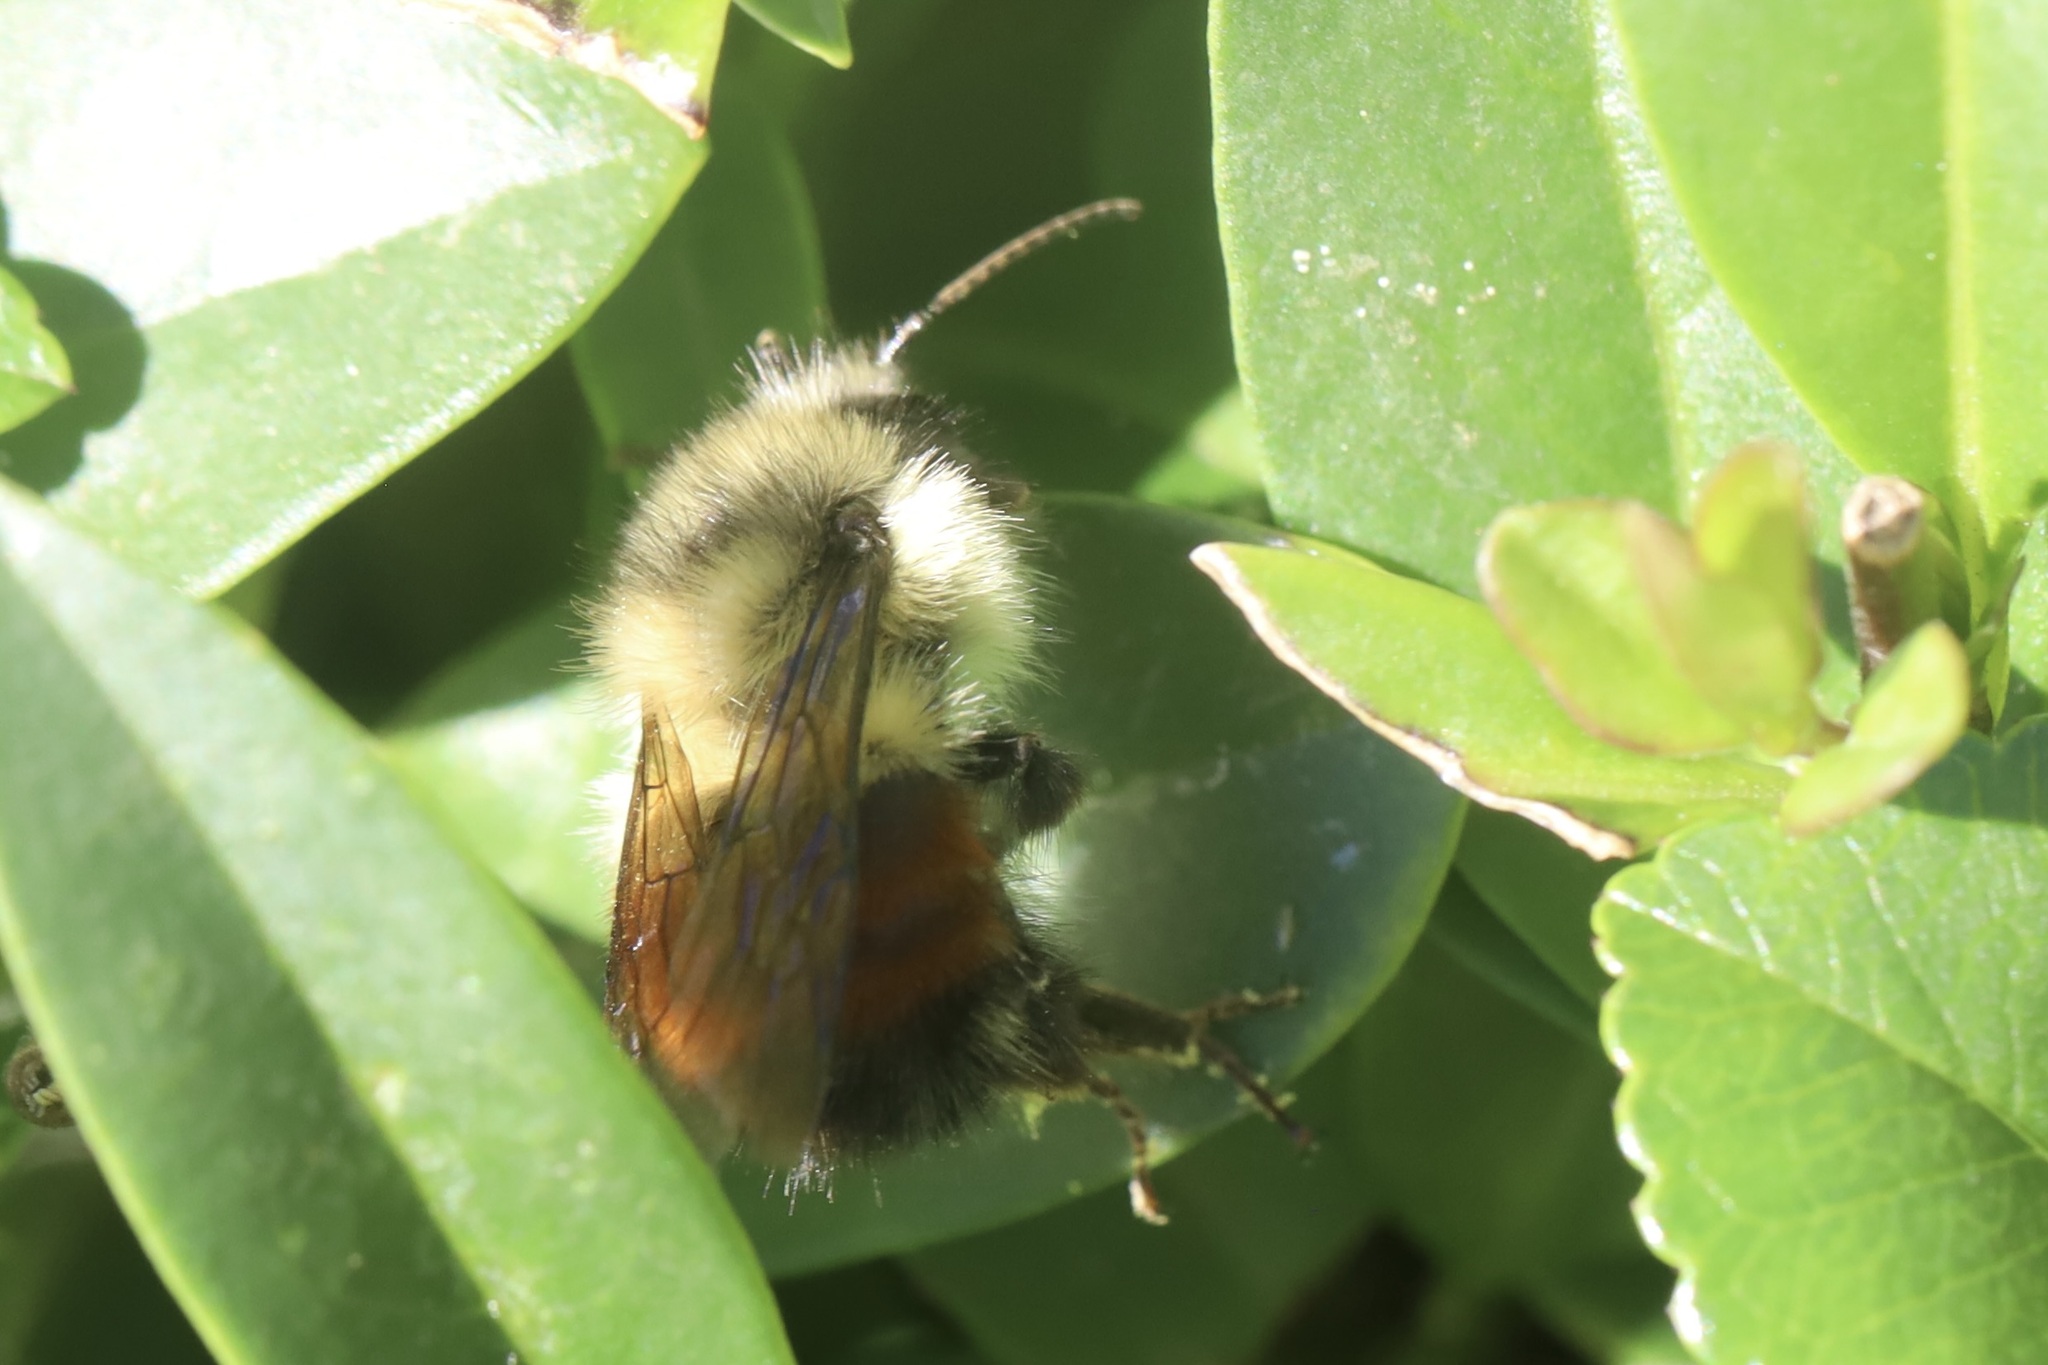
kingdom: Animalia
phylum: Arthropoda
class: Insecta
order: Hymenoptera
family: Apidae
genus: Bombus
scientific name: Bombus melanopygus
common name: Black tail bumble bee
